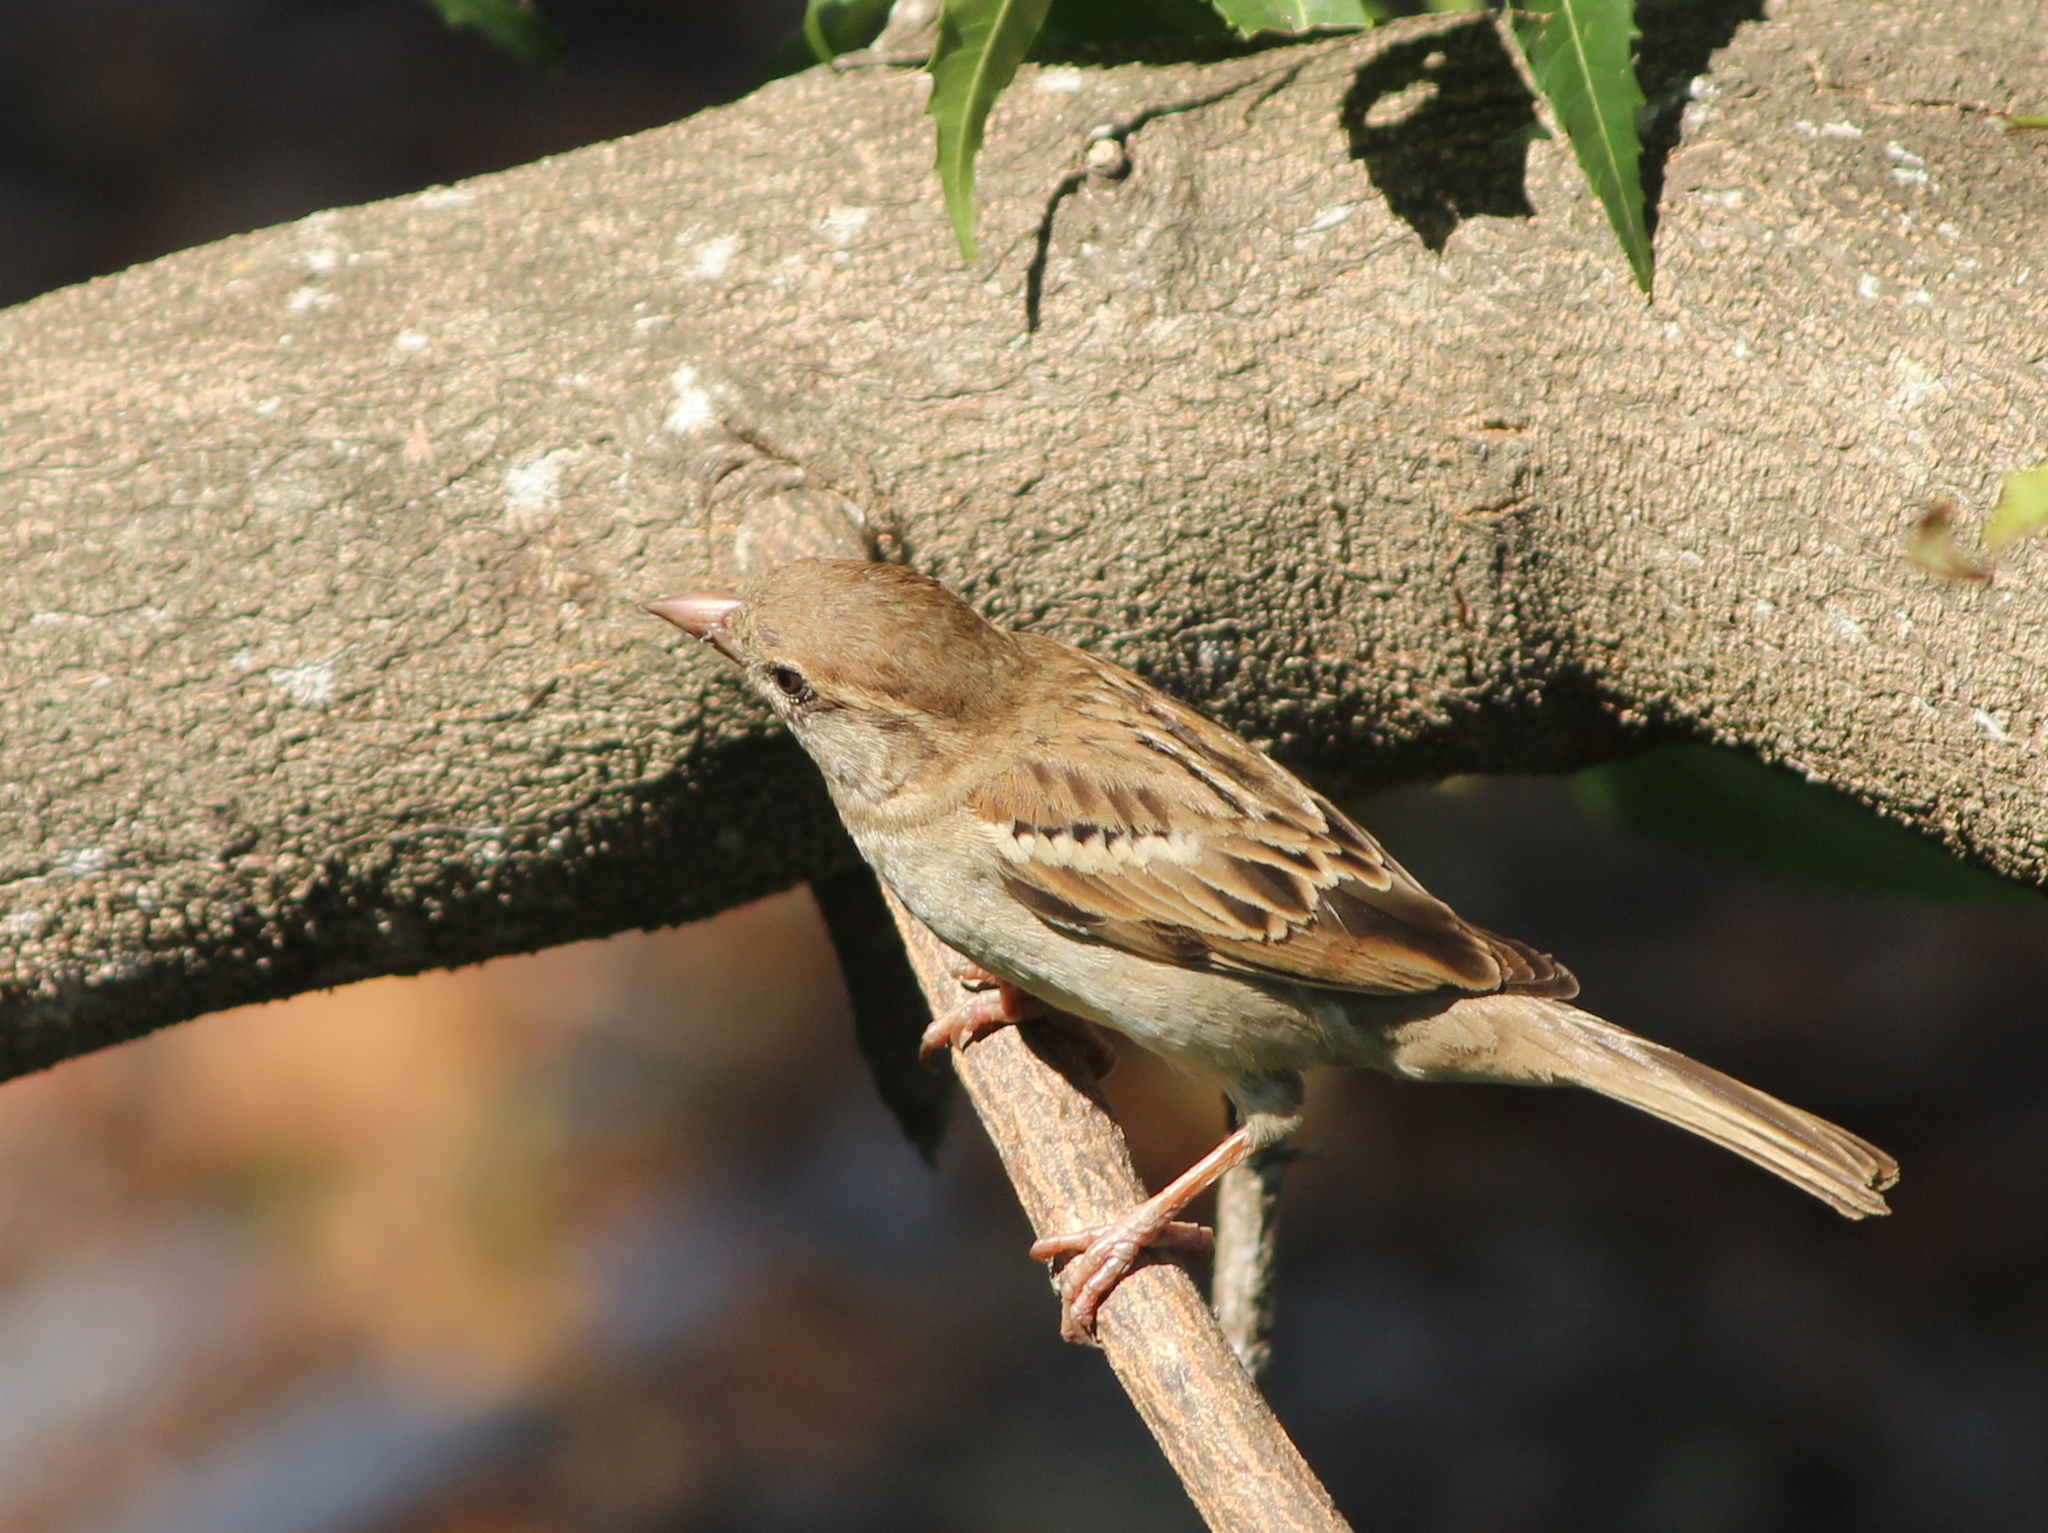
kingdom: Animalia
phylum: Chordata
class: Aves
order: Passeriformes
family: Passeridae
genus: Passer
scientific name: Passer domesticus
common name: House sparrow
